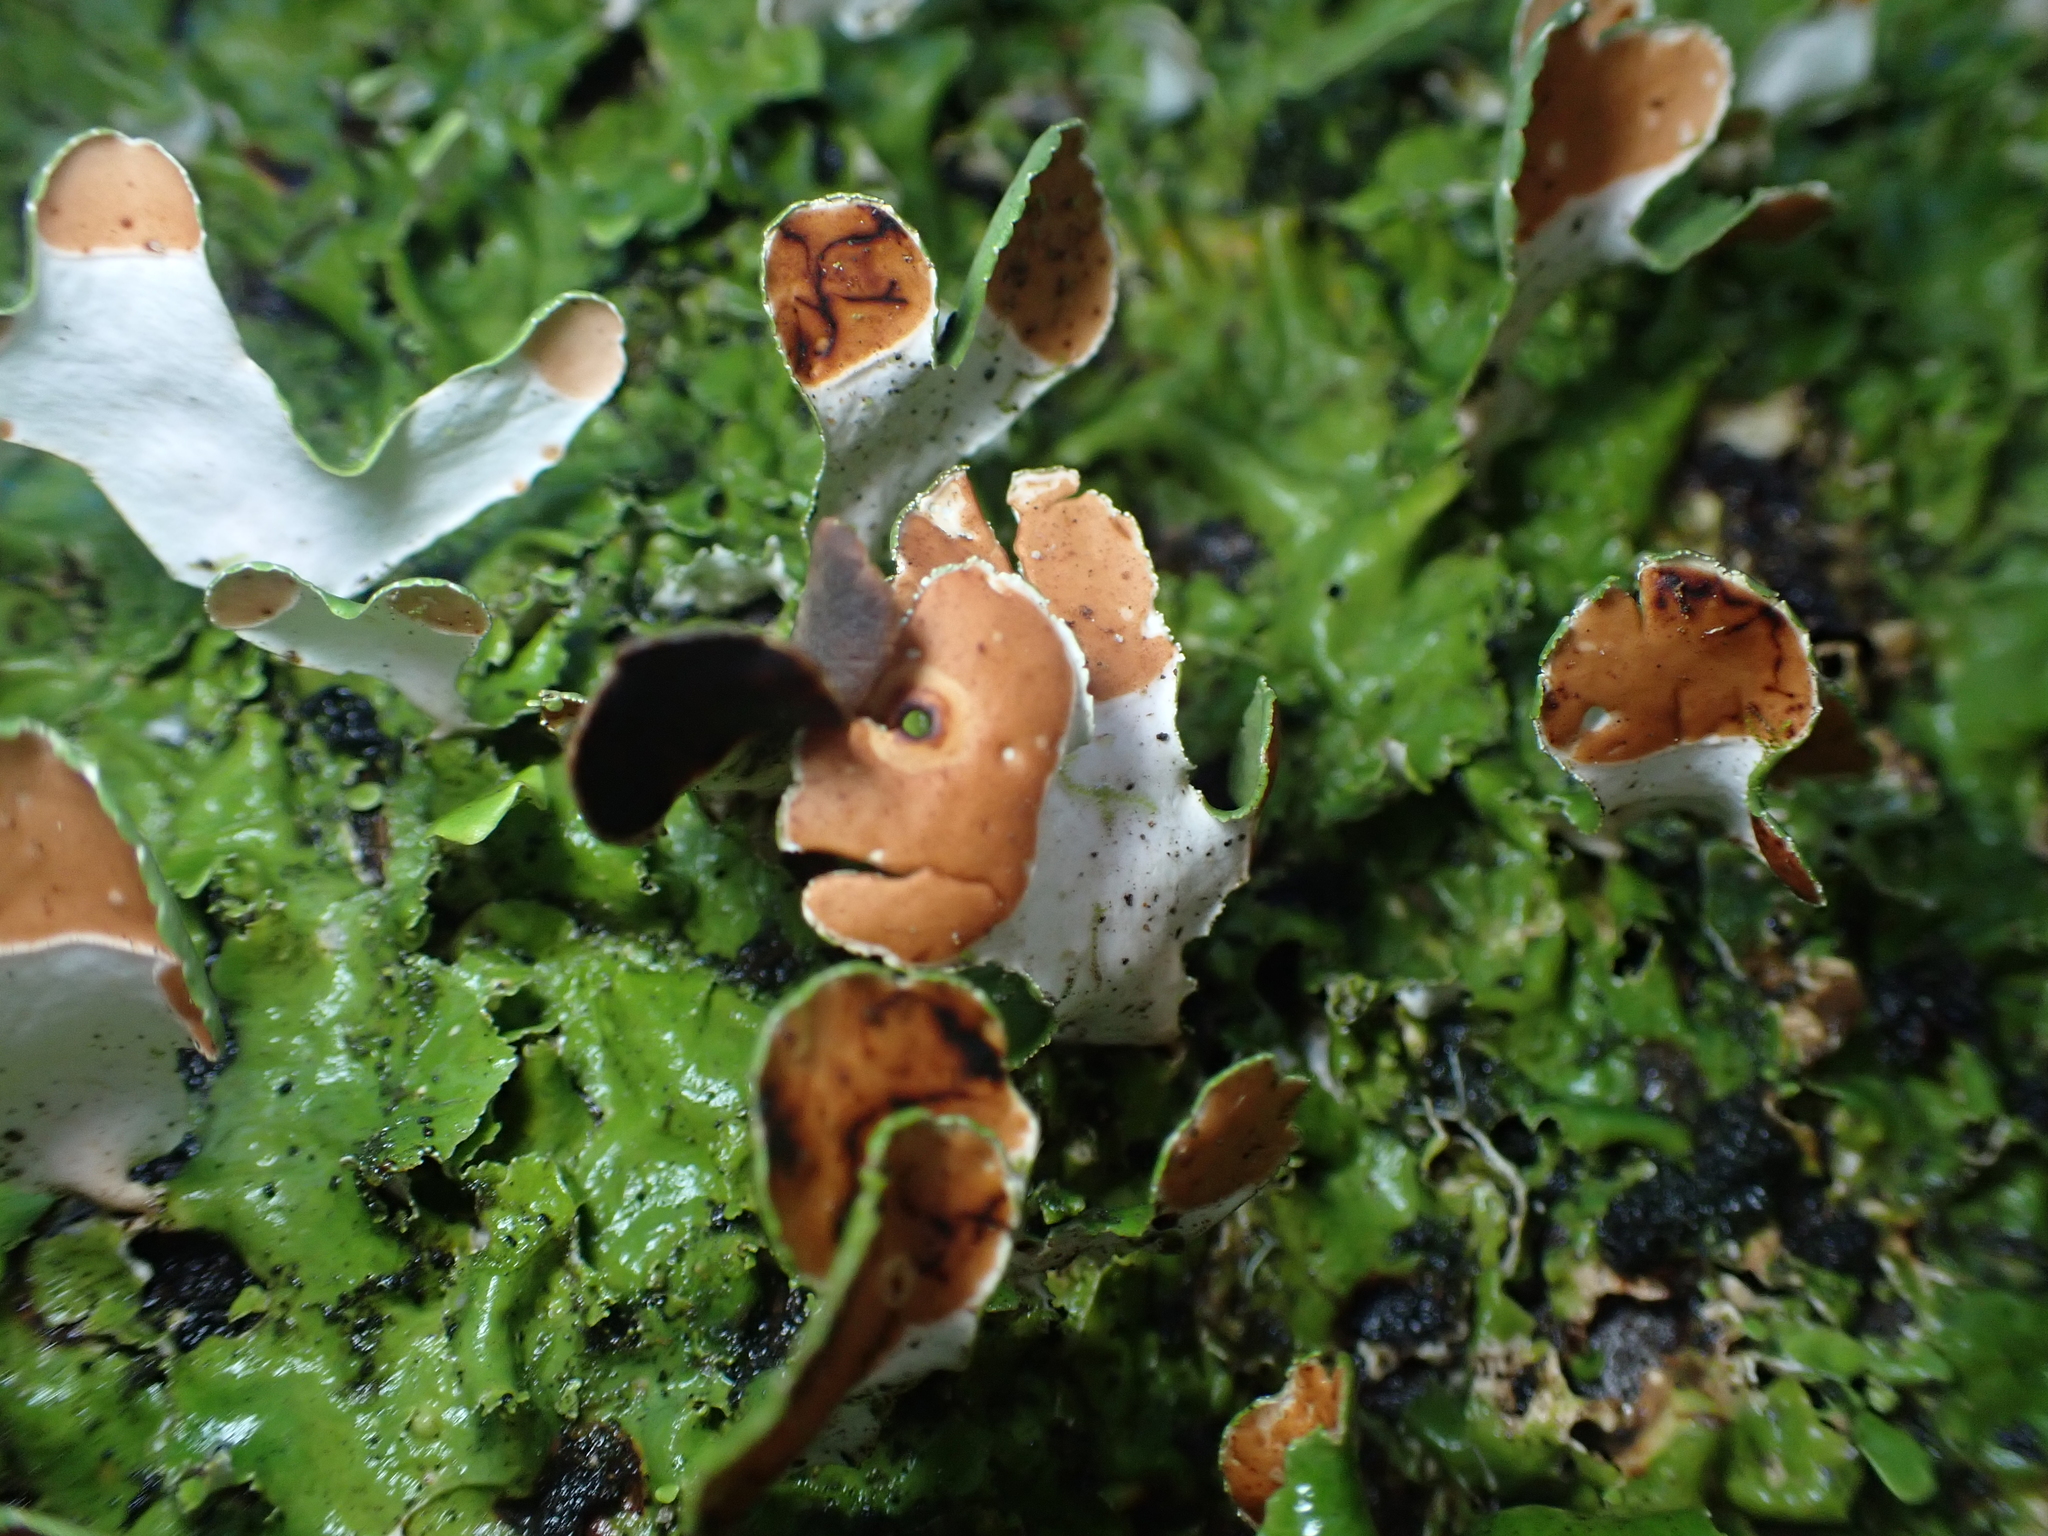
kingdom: Fungi
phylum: Ascomycota
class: Lecanoromycetes
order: Peltigerales
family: Nephromataceae
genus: Nephroma
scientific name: Nephroma australe
